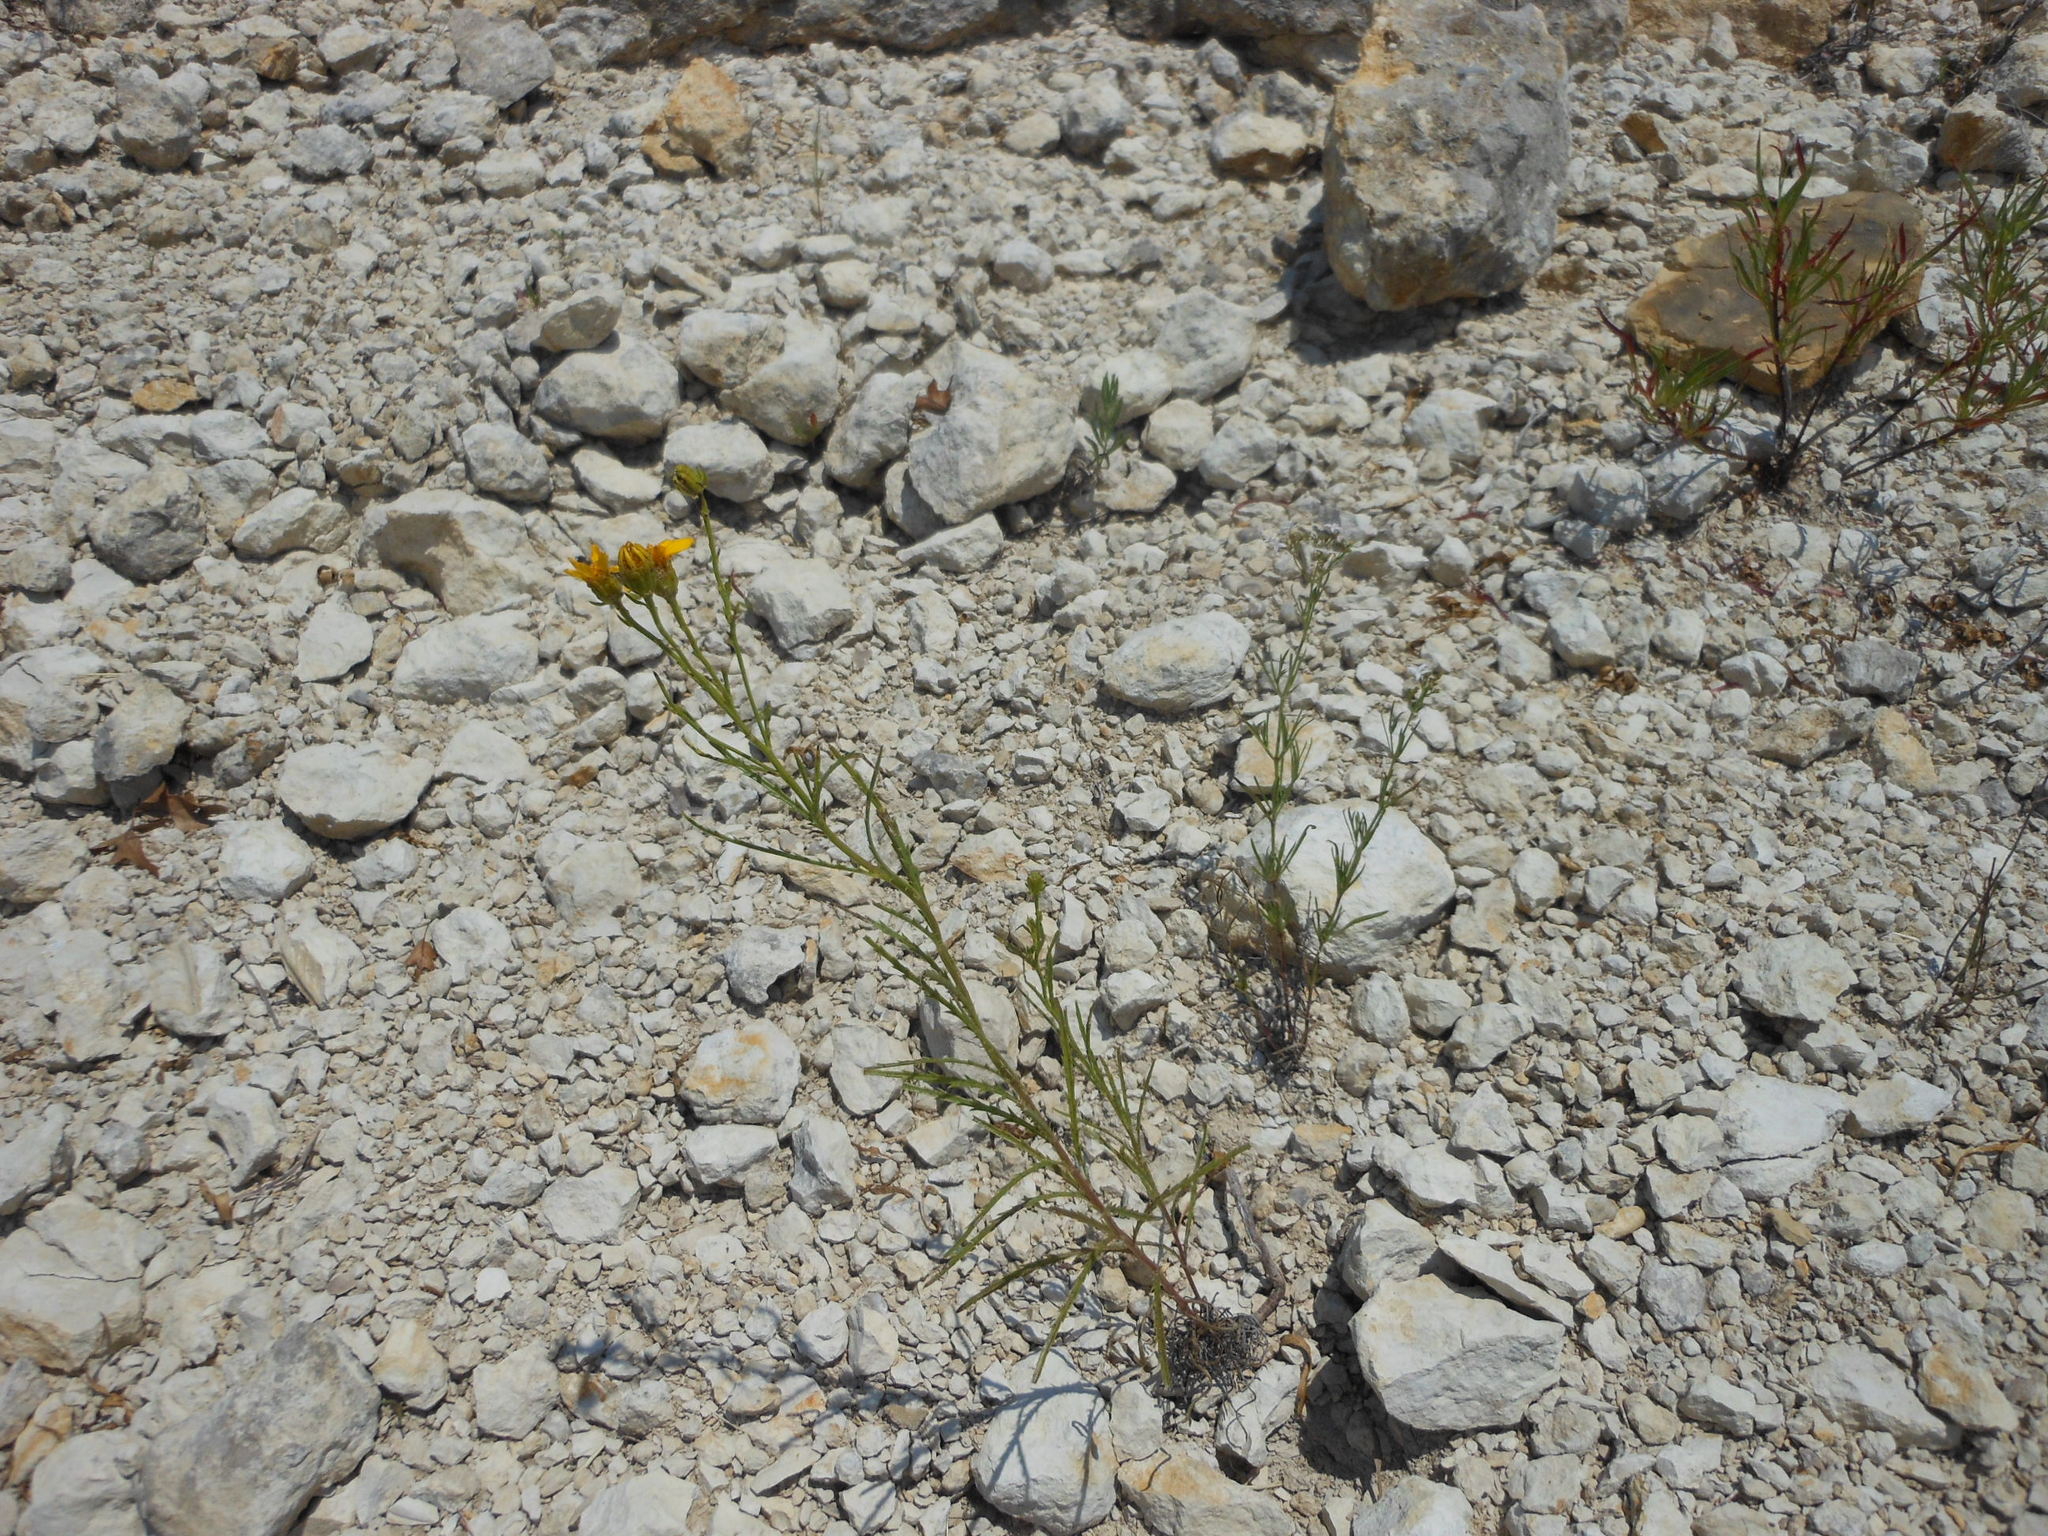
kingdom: Plantae
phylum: Tracheophyta
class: Magnoliopsida
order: Asterales
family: Asteraceae
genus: Dysodiopsis
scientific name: Dysodiopsis tagetoides
